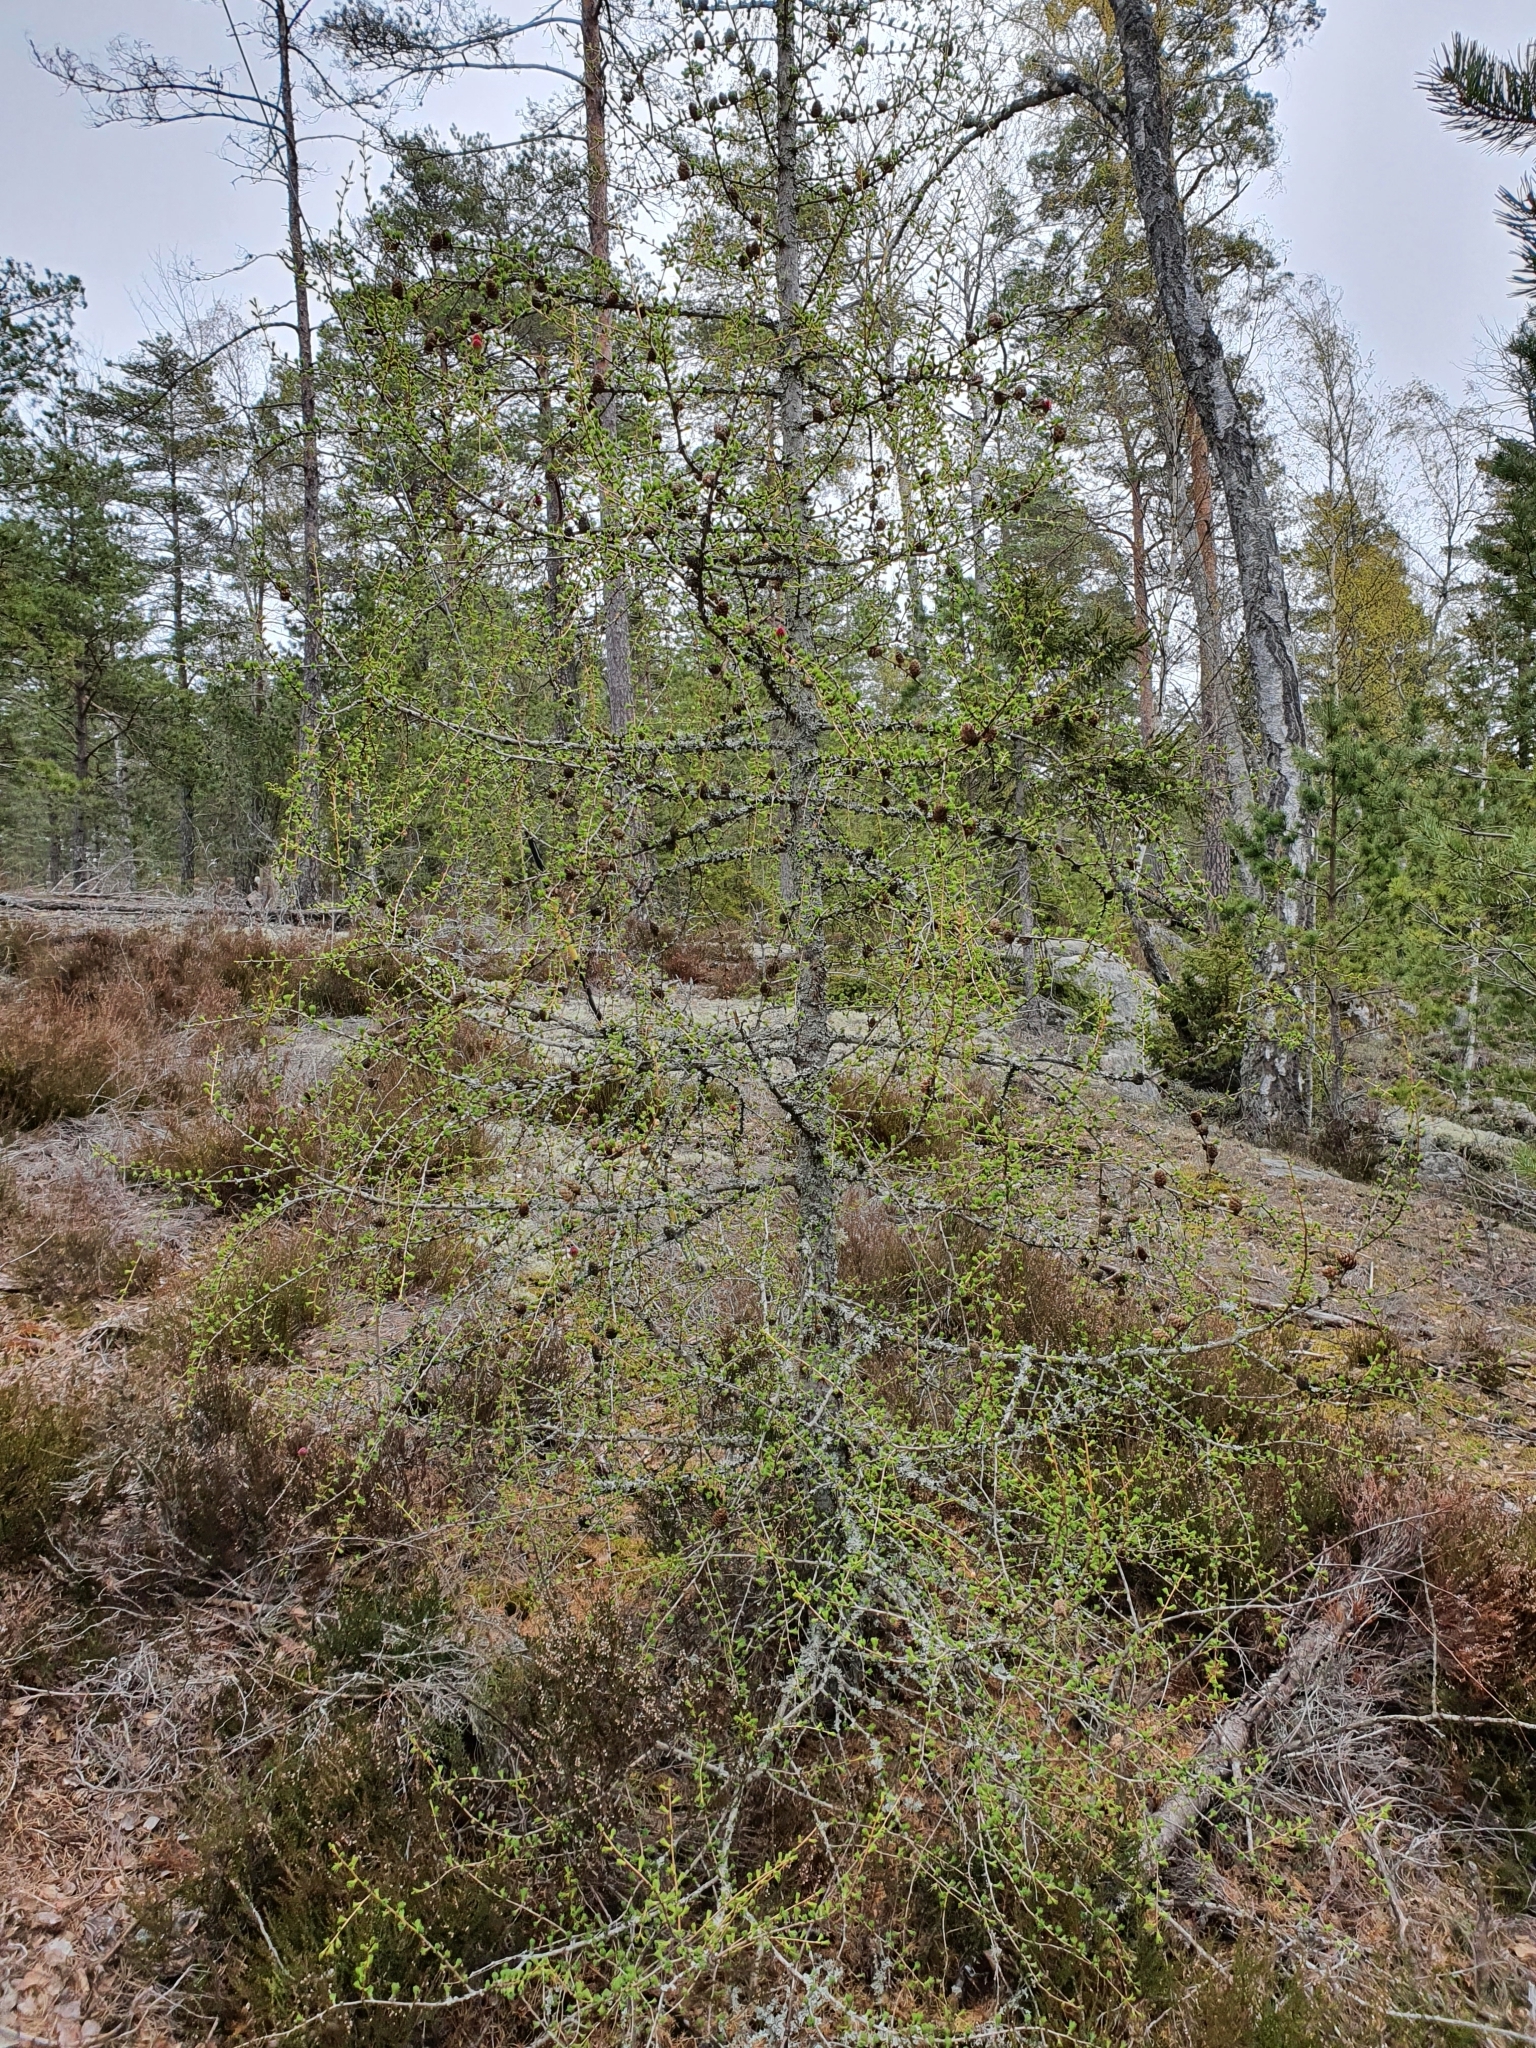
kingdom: Plantae
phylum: Tracheophyta
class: Pinopsida
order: Pinales
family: Pinaceae
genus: Larix
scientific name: Larix decidua
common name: European larch
